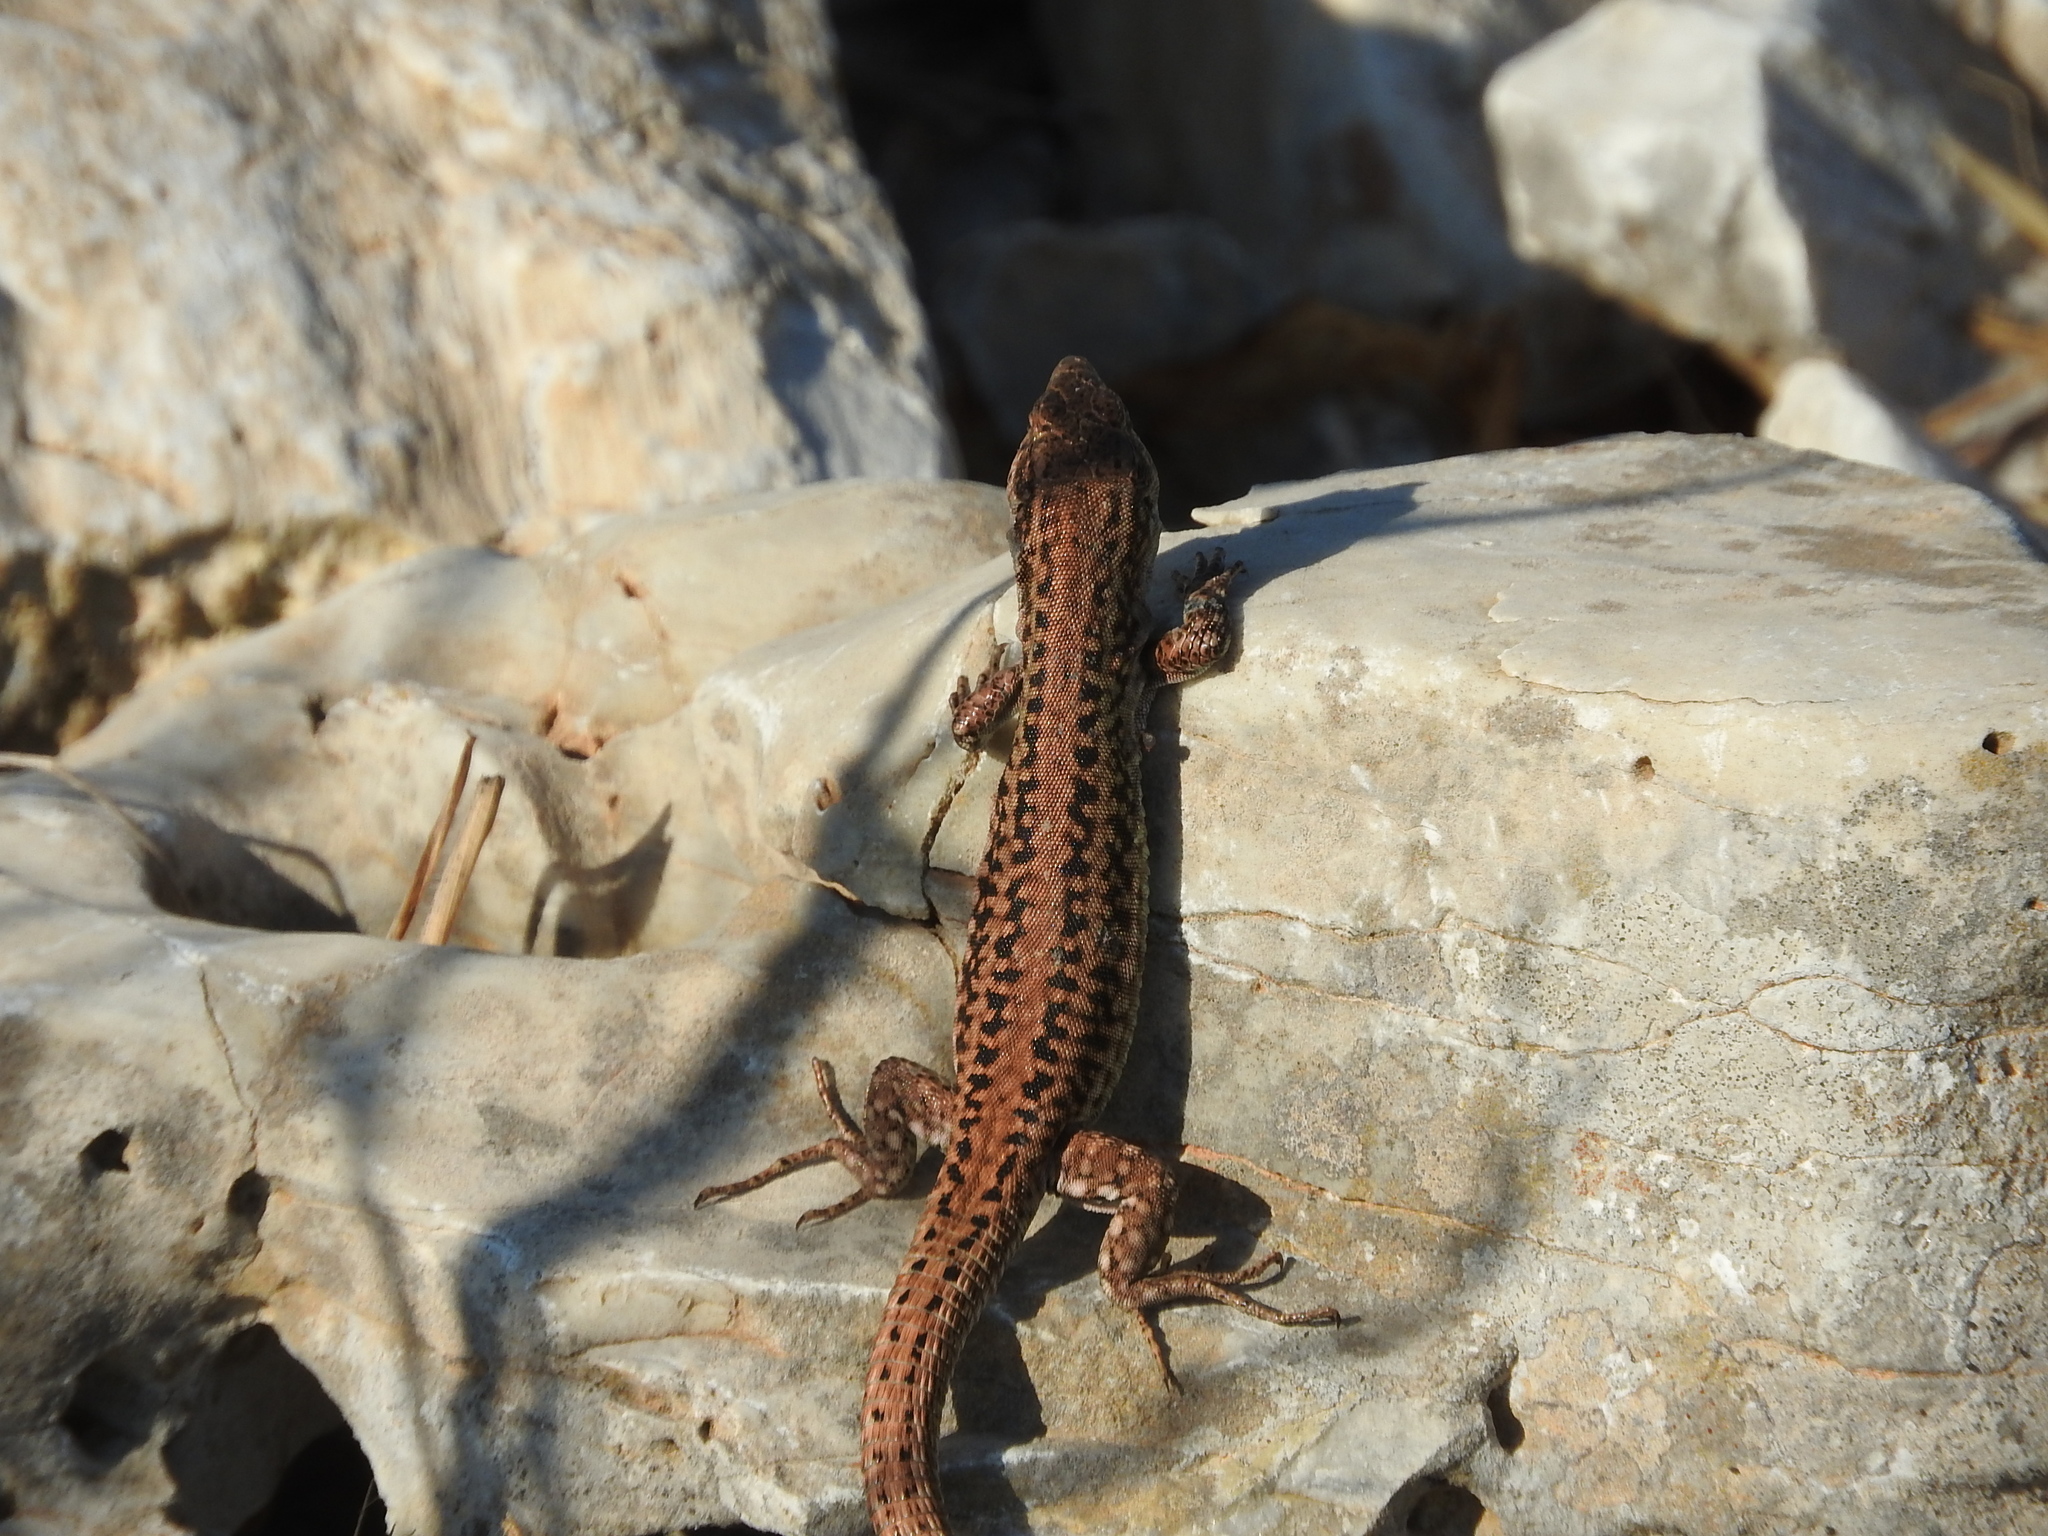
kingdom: Animalia
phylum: Chordata
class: Squamata
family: Lacertidae
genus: Podarcis
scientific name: Podarcis erhardii
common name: Erhard's wall lizard
